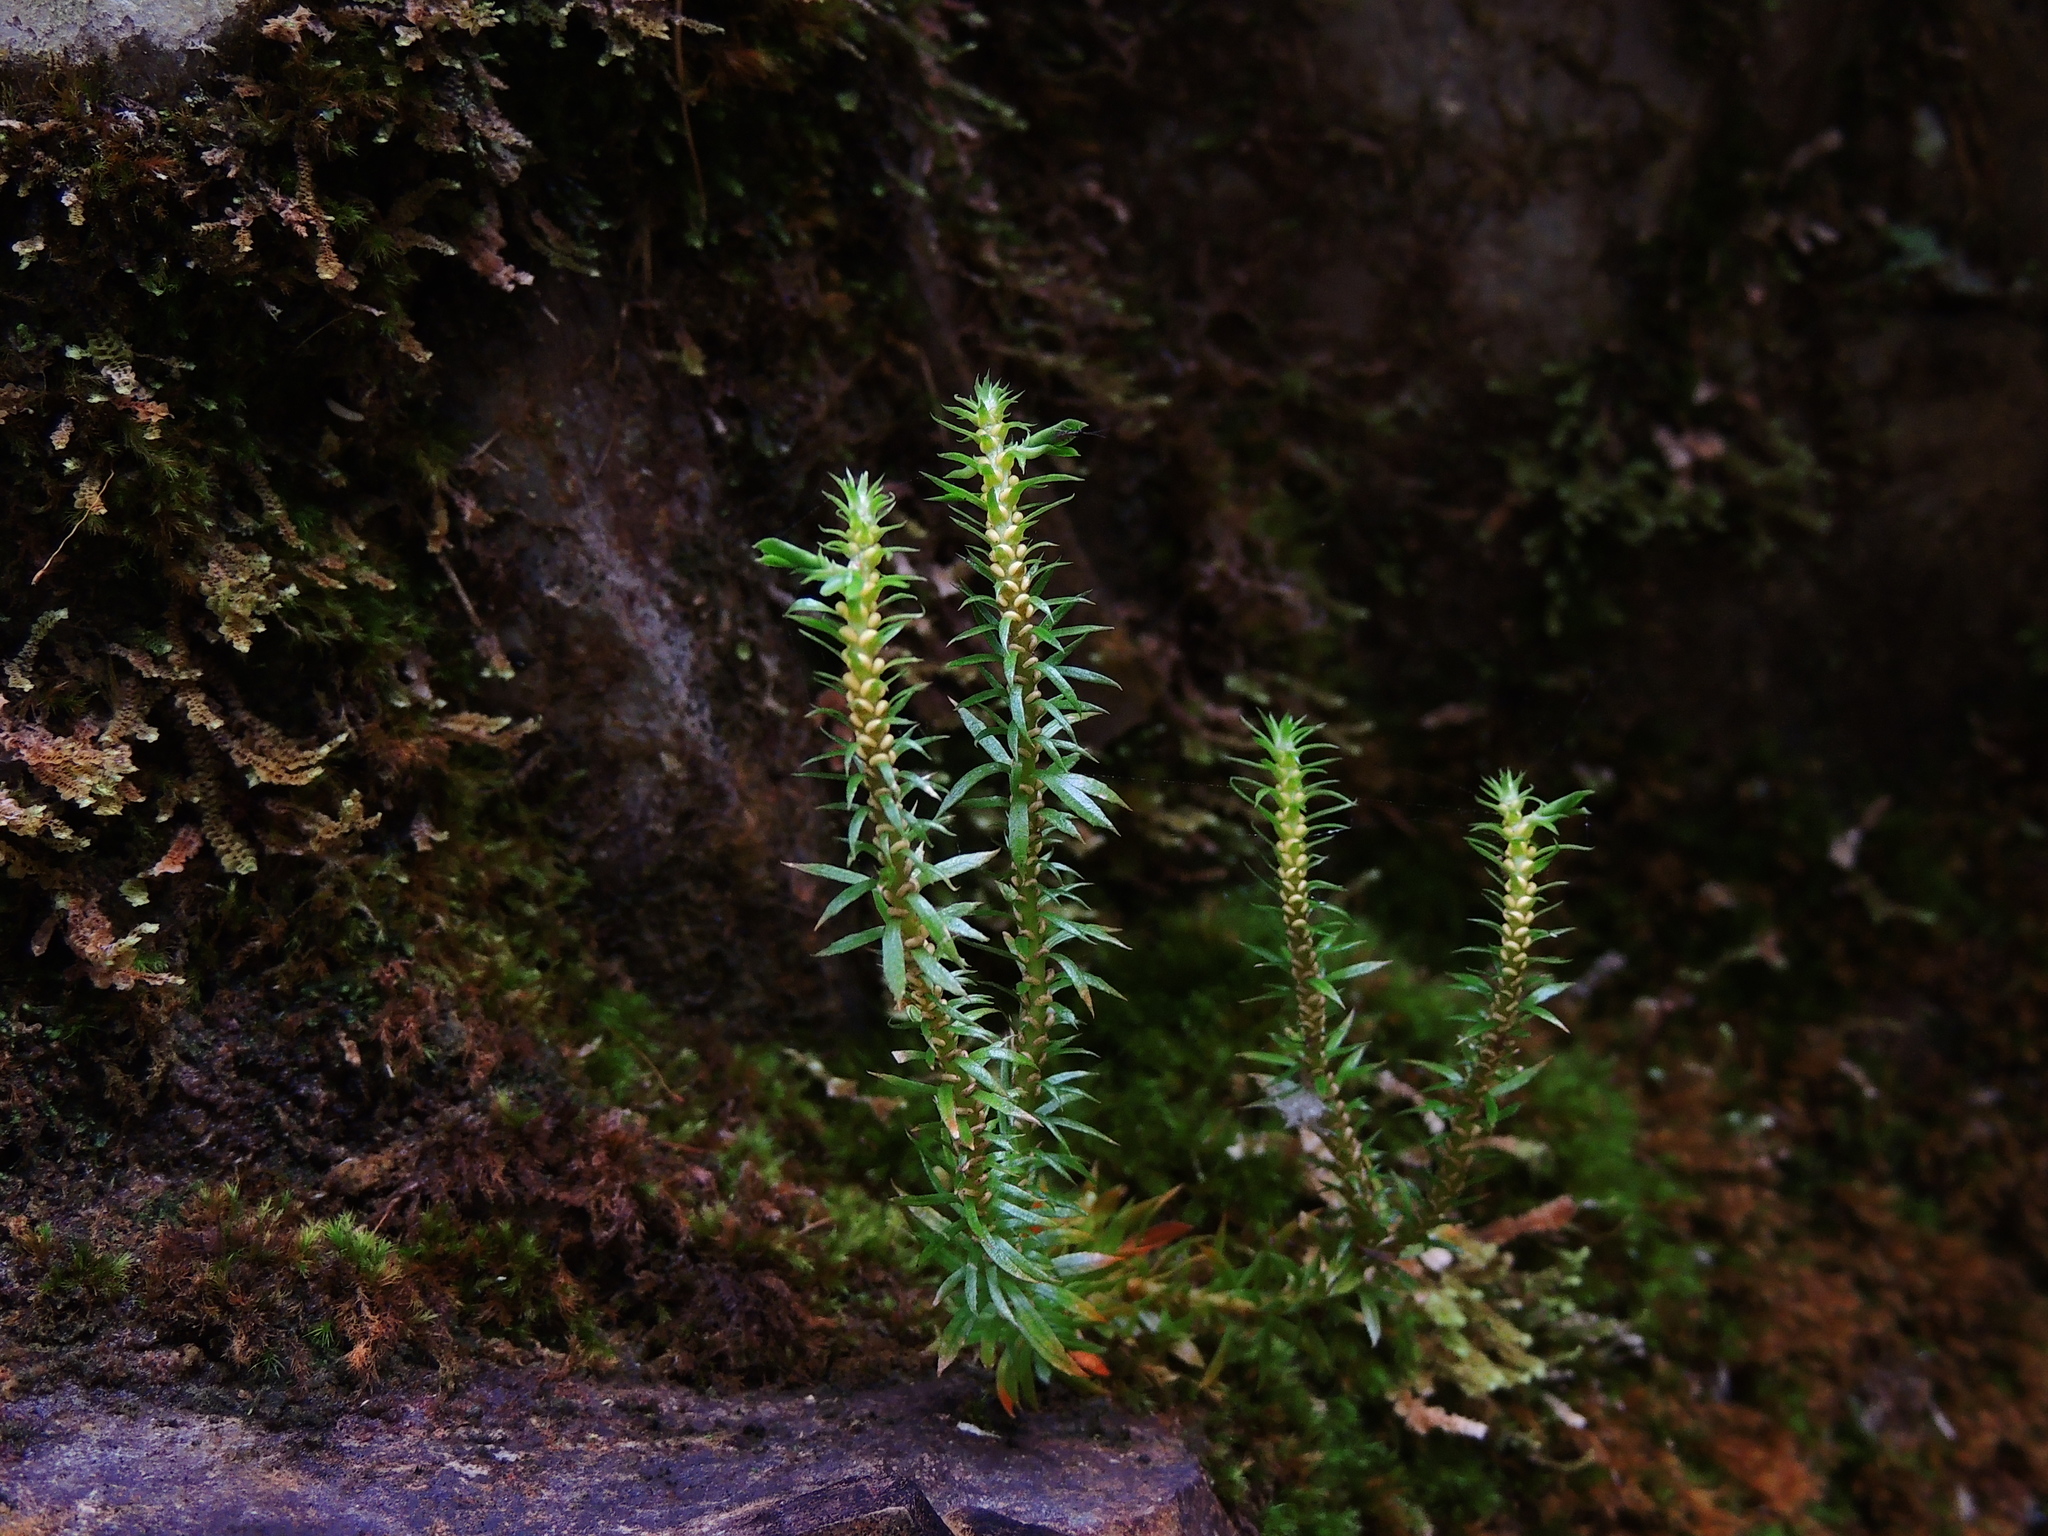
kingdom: Plantae
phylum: Tracheophyta
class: Lycopodiopsida
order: Lycopodiales
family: Lycopodiaceae
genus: Huperzia
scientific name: Huperzia liangshanica
